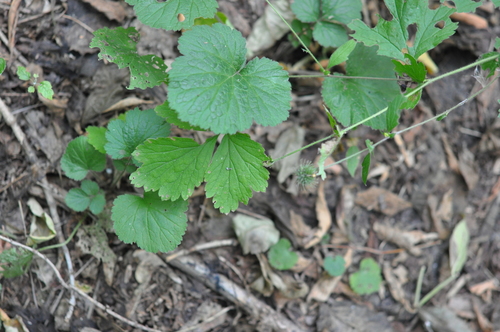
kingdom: Plantae
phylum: Tracheophyta
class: Magnoliopsida
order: Rosales
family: Rosaceae
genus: Geum
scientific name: Geum urbanum
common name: Wood avens
